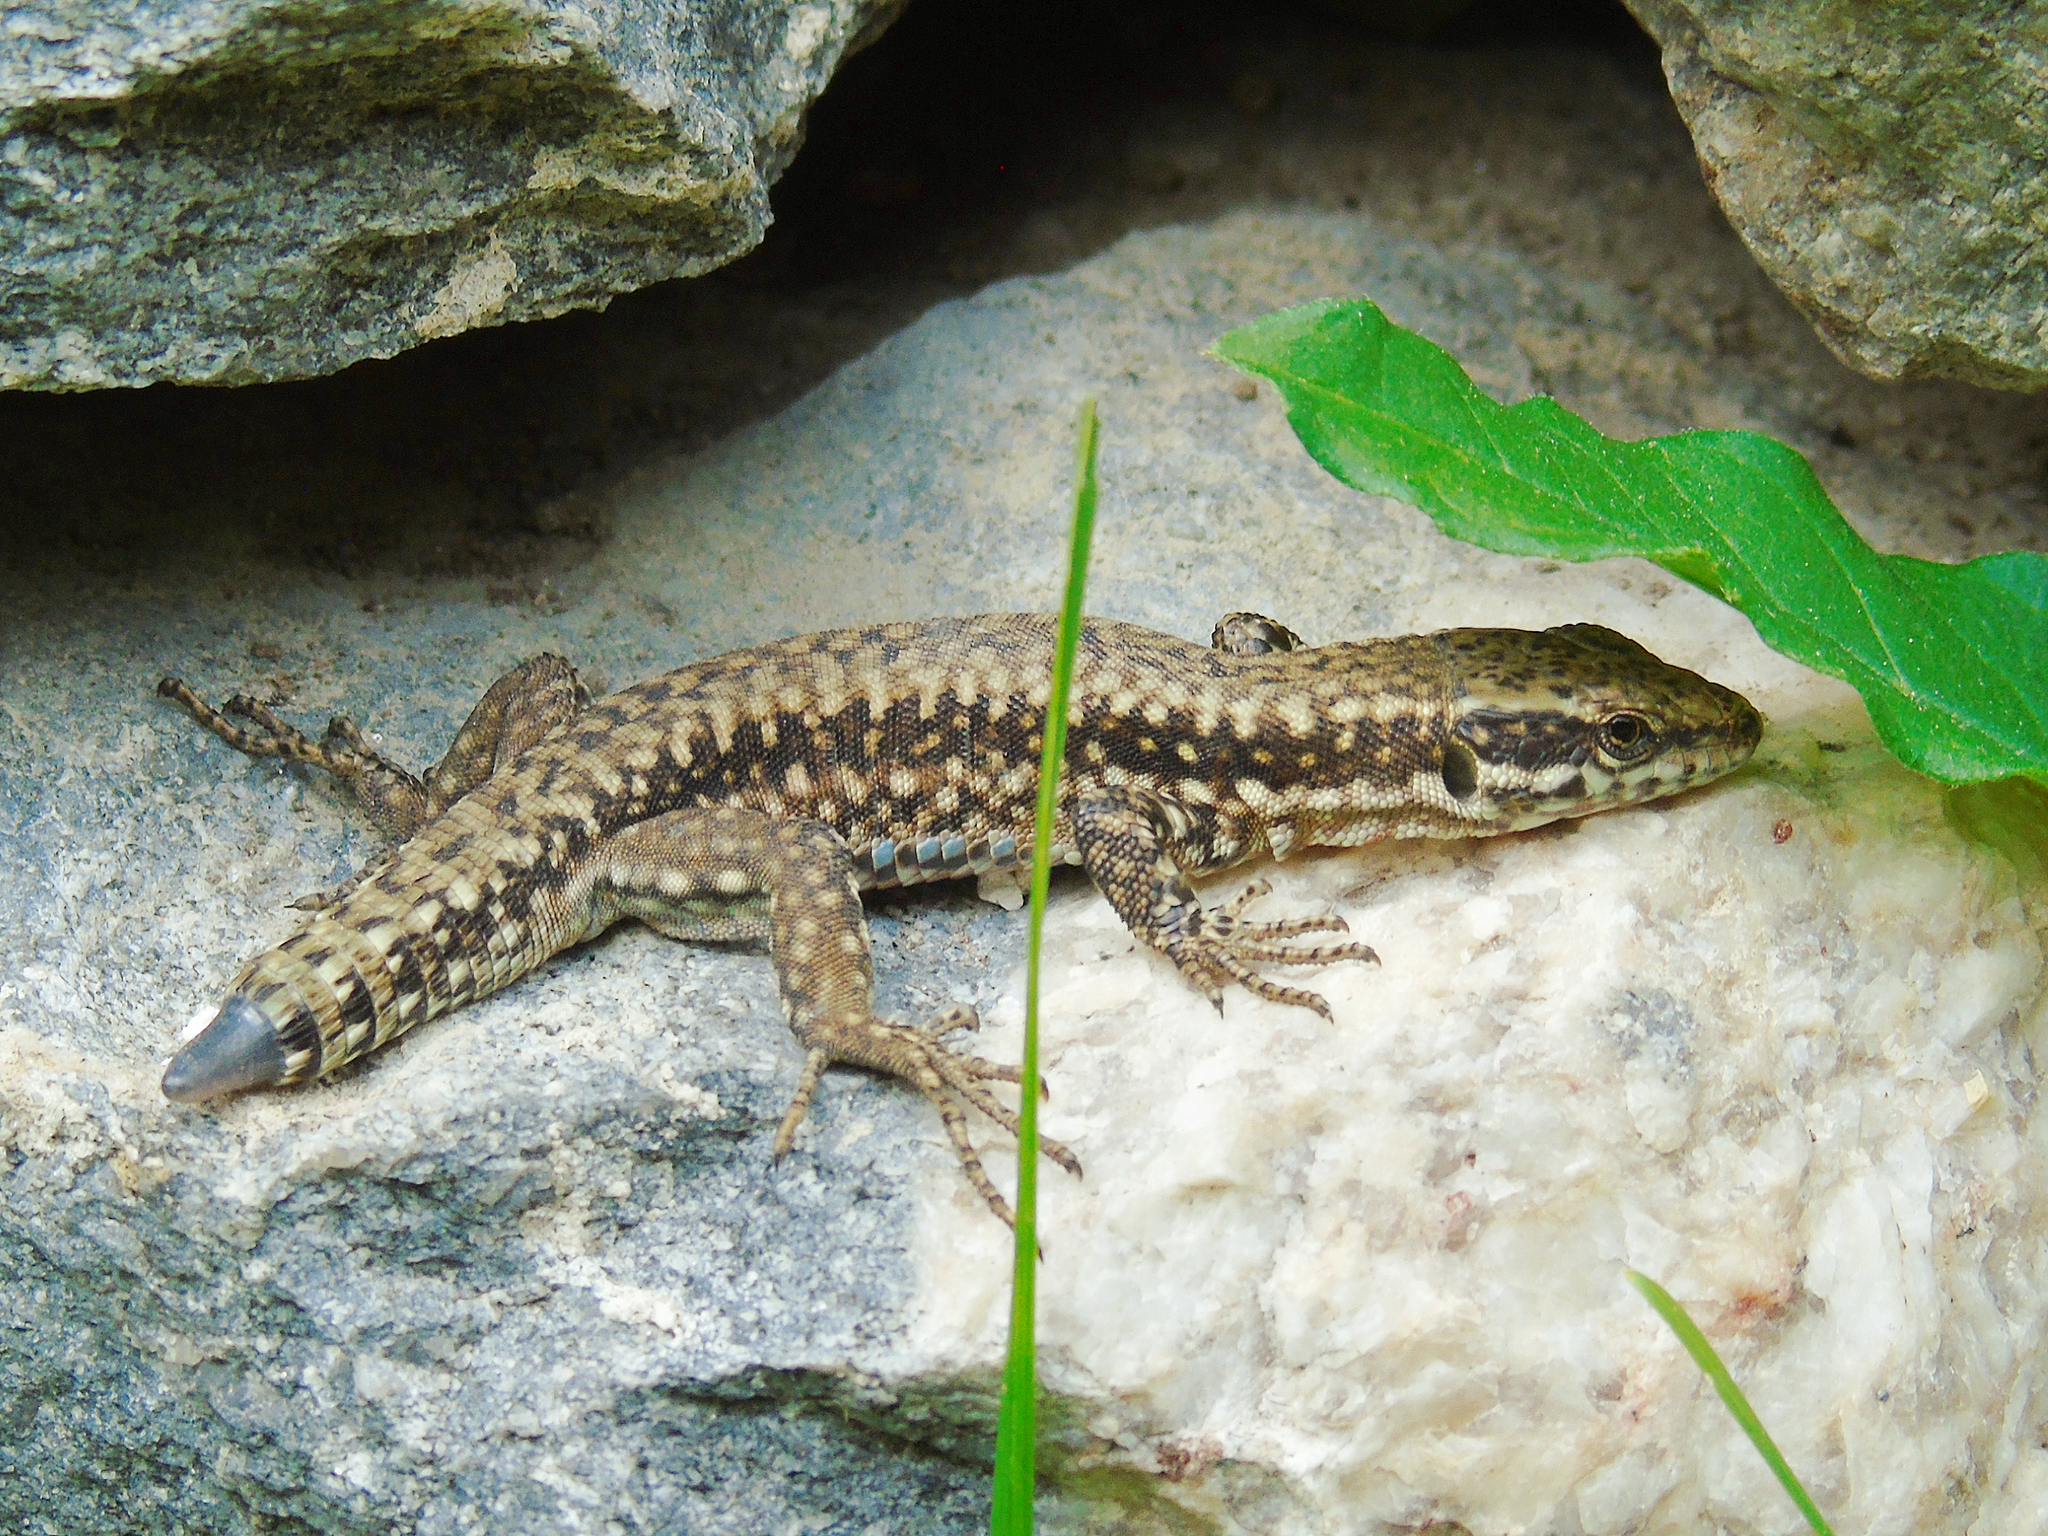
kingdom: Animalia
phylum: Chordata
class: Squamata
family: Lacertidae
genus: Podarcis
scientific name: Podarcis muralis
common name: Common wall lizard
